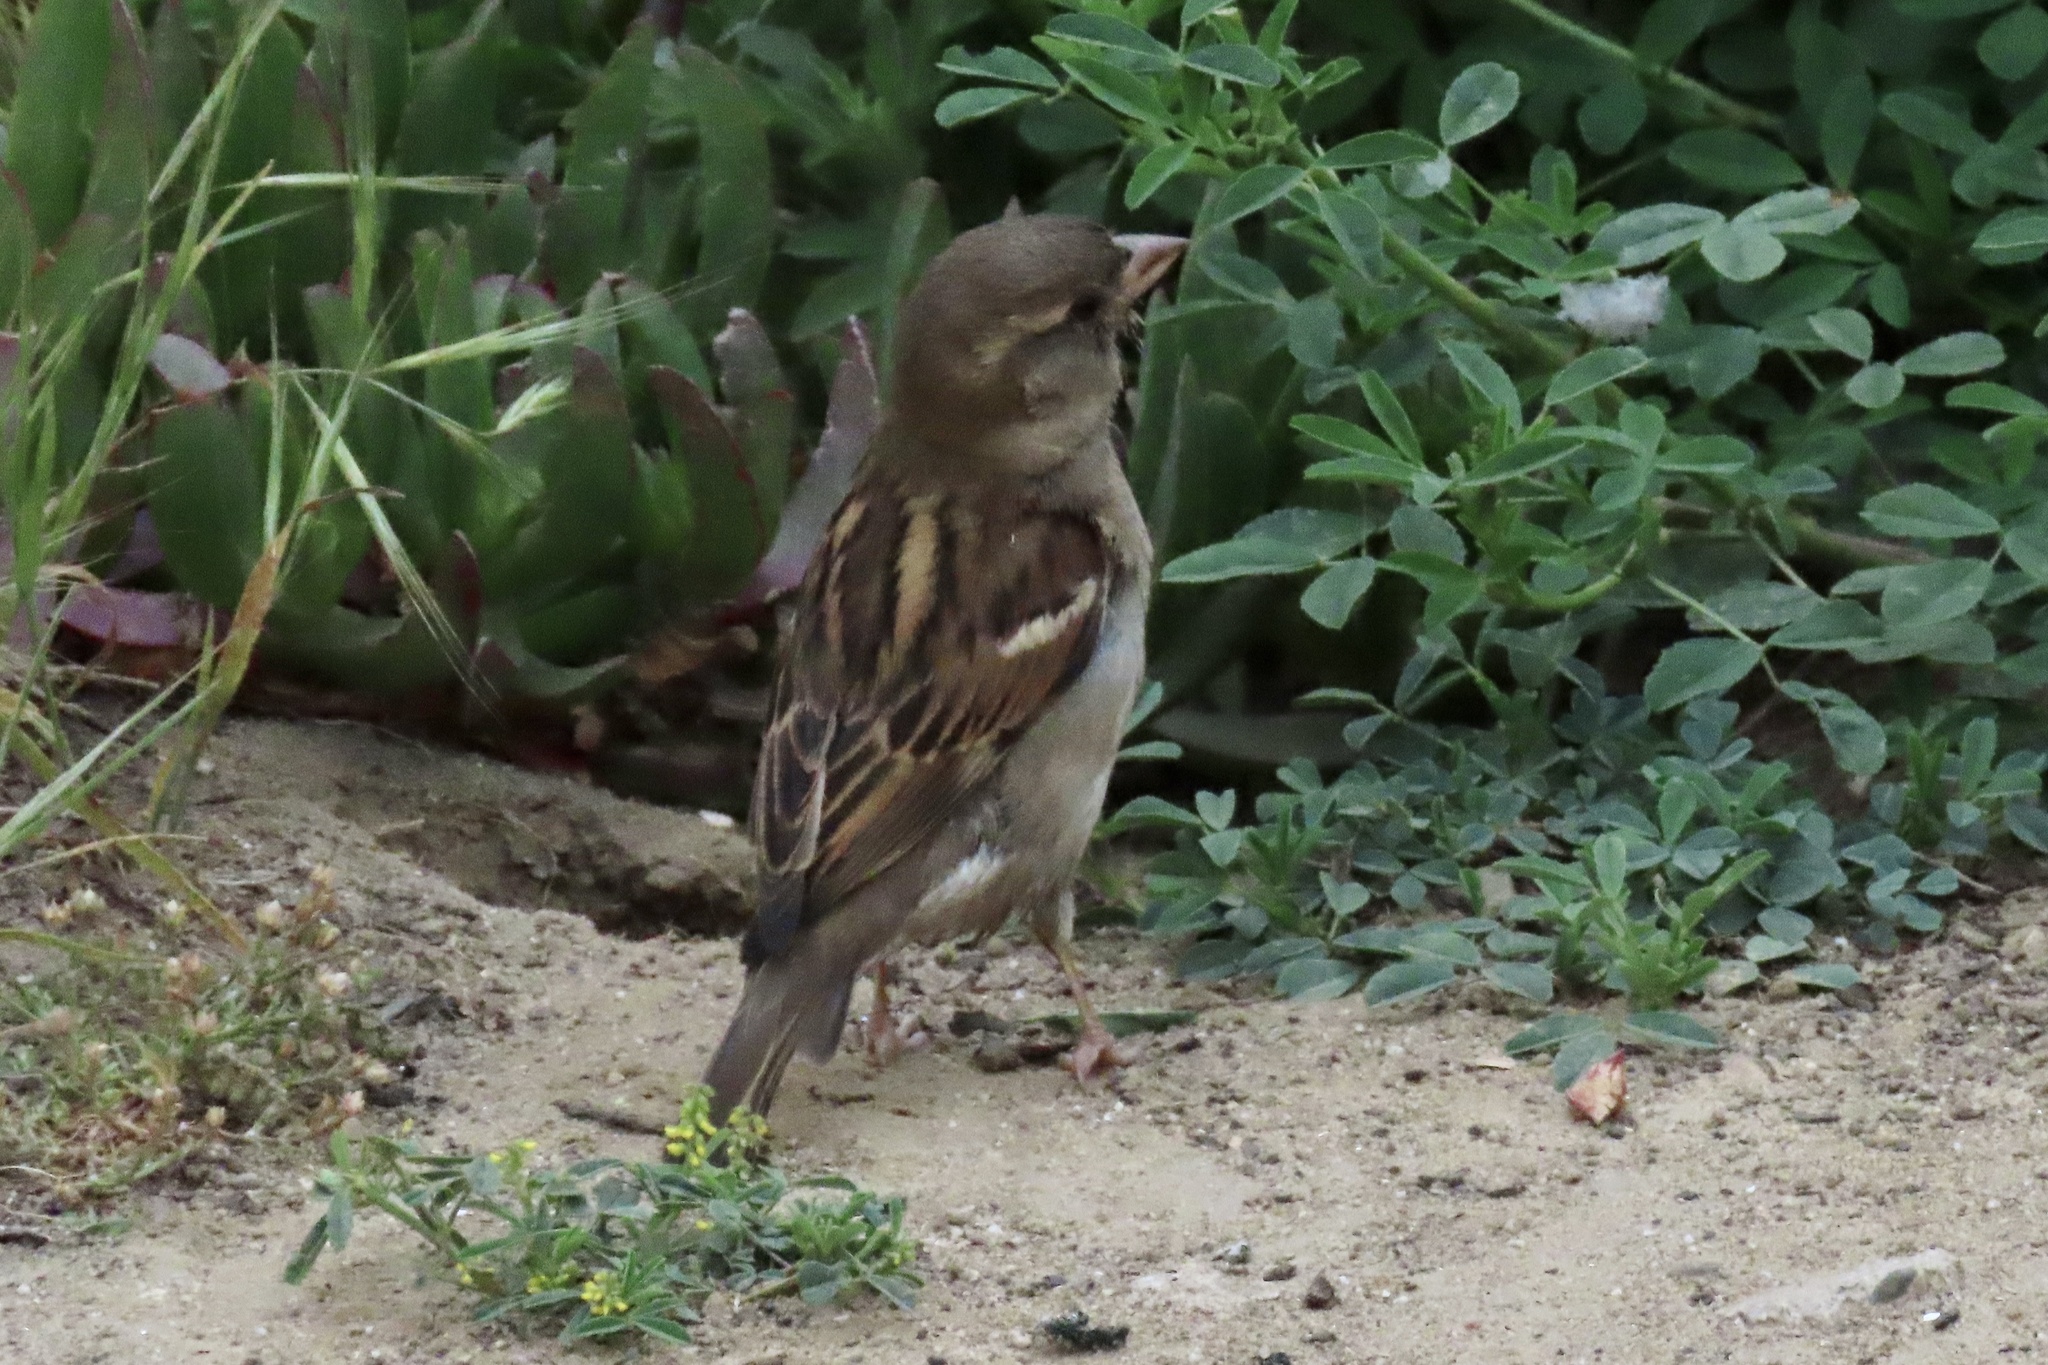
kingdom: Animalia
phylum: Chordata
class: Aves
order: Passeriformes
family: Passeridae
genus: Passer
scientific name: Passer domesticus
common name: House sparrow
